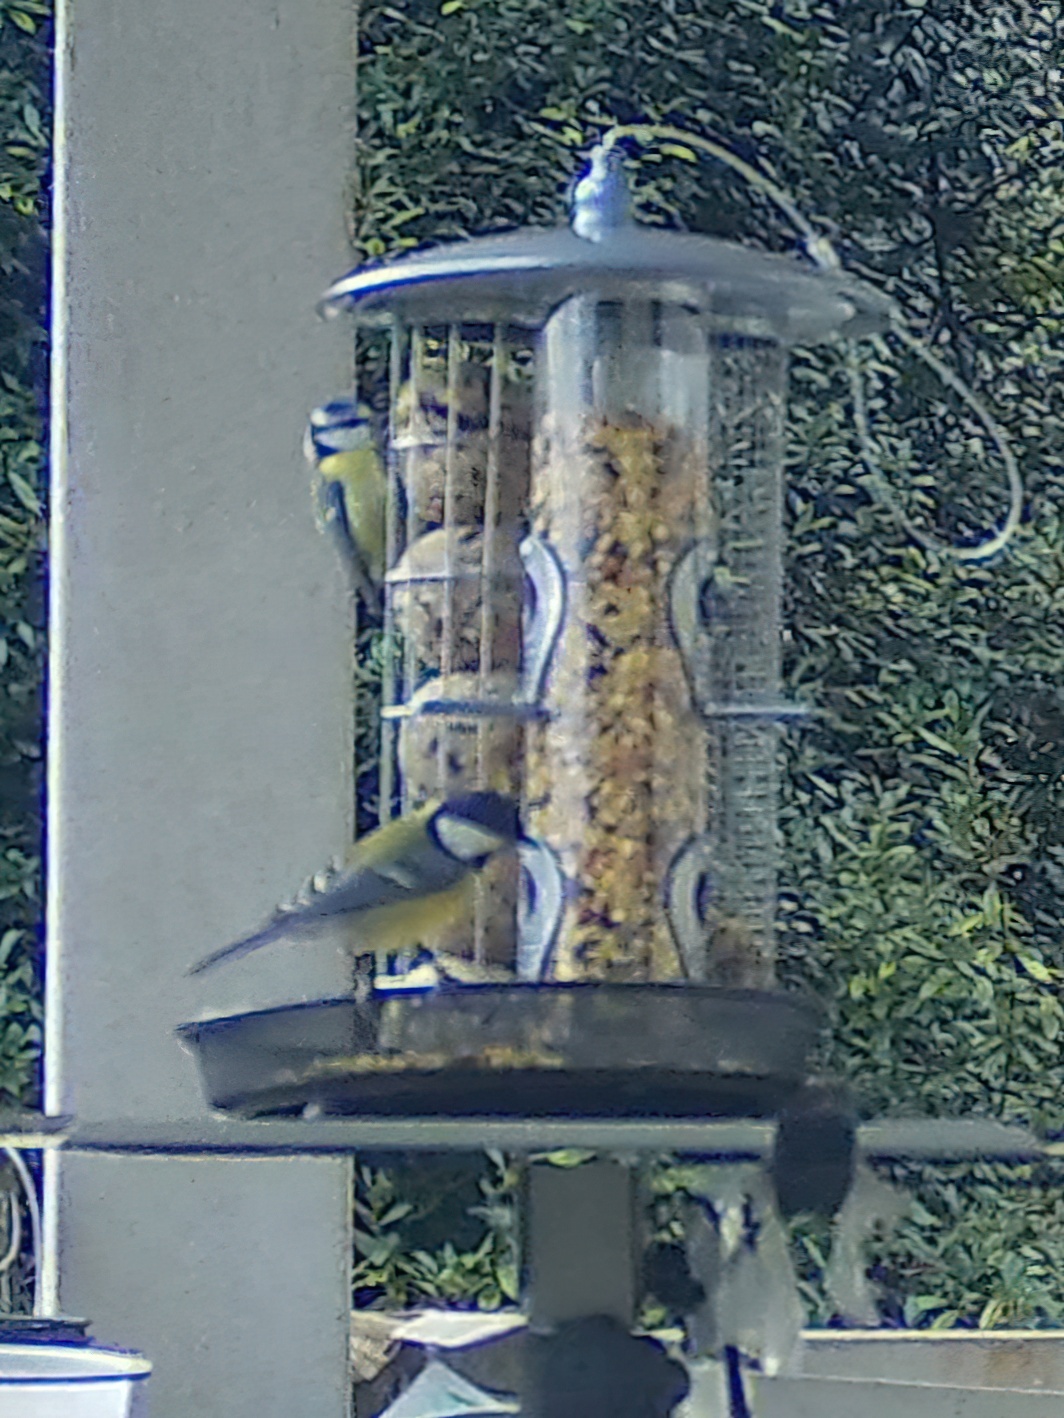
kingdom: Animalia
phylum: Chordata
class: Aves
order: Passeriformes
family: Paridae
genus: Cyanistes
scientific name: Cyanistes caeruleus
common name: Eurasian blue tit
